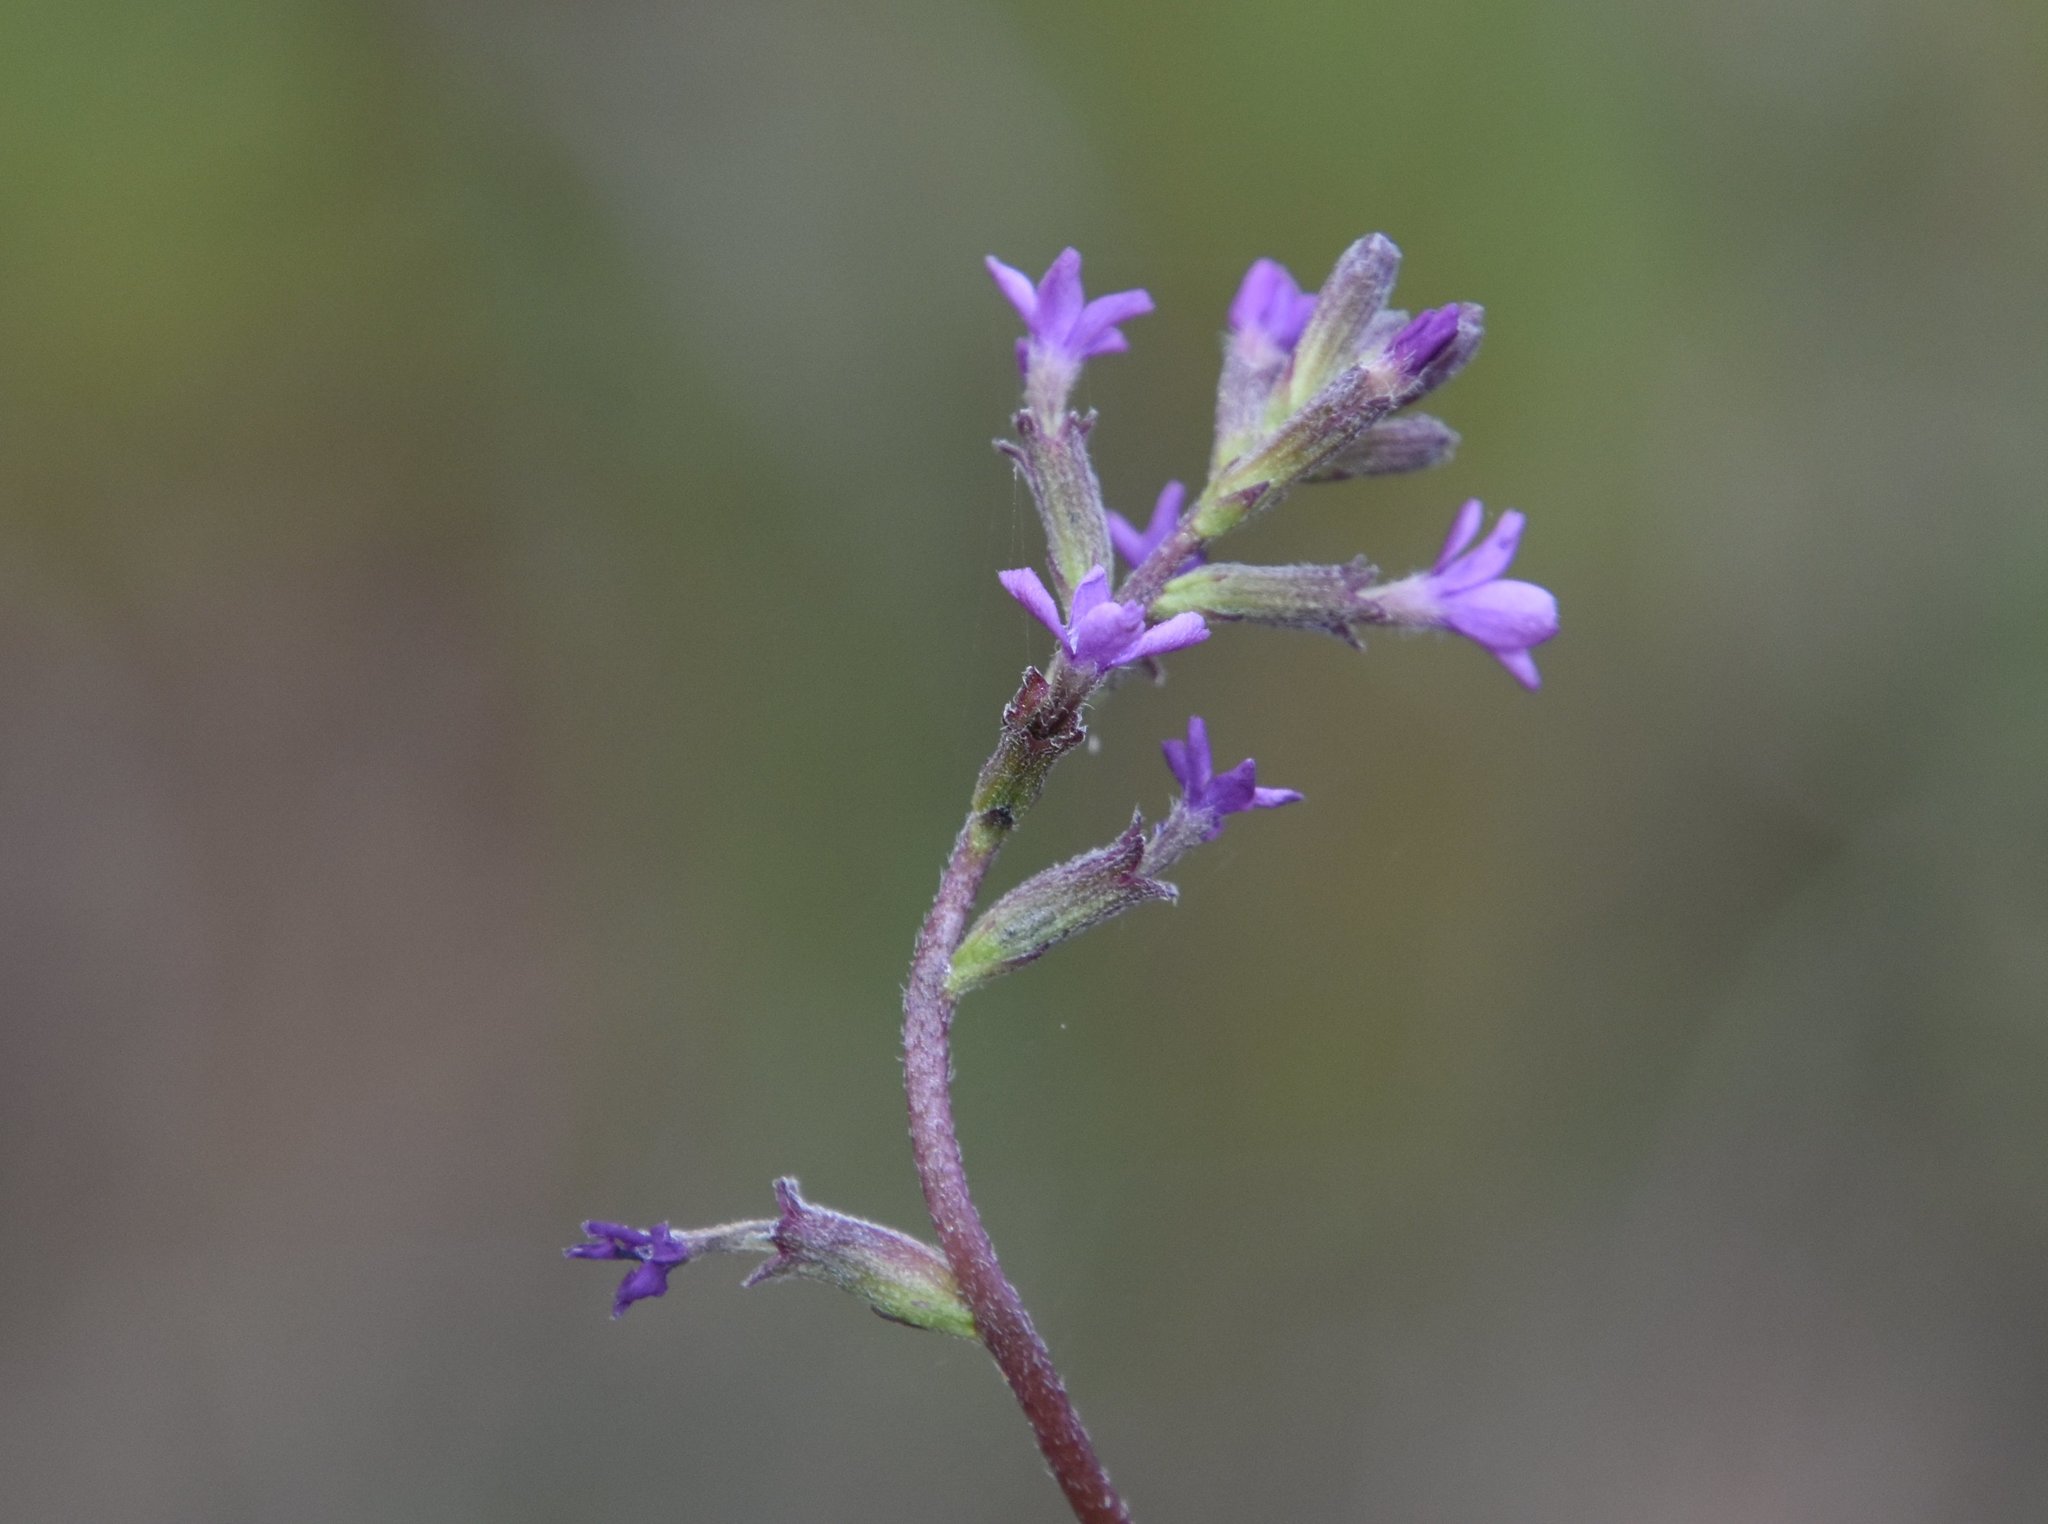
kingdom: Plantae
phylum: Tracheophyta
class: Magnoliopsida
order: Lamiales
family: Orobanchaceae
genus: Buchnera
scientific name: Buchnera floridana
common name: Florida bluehearts
